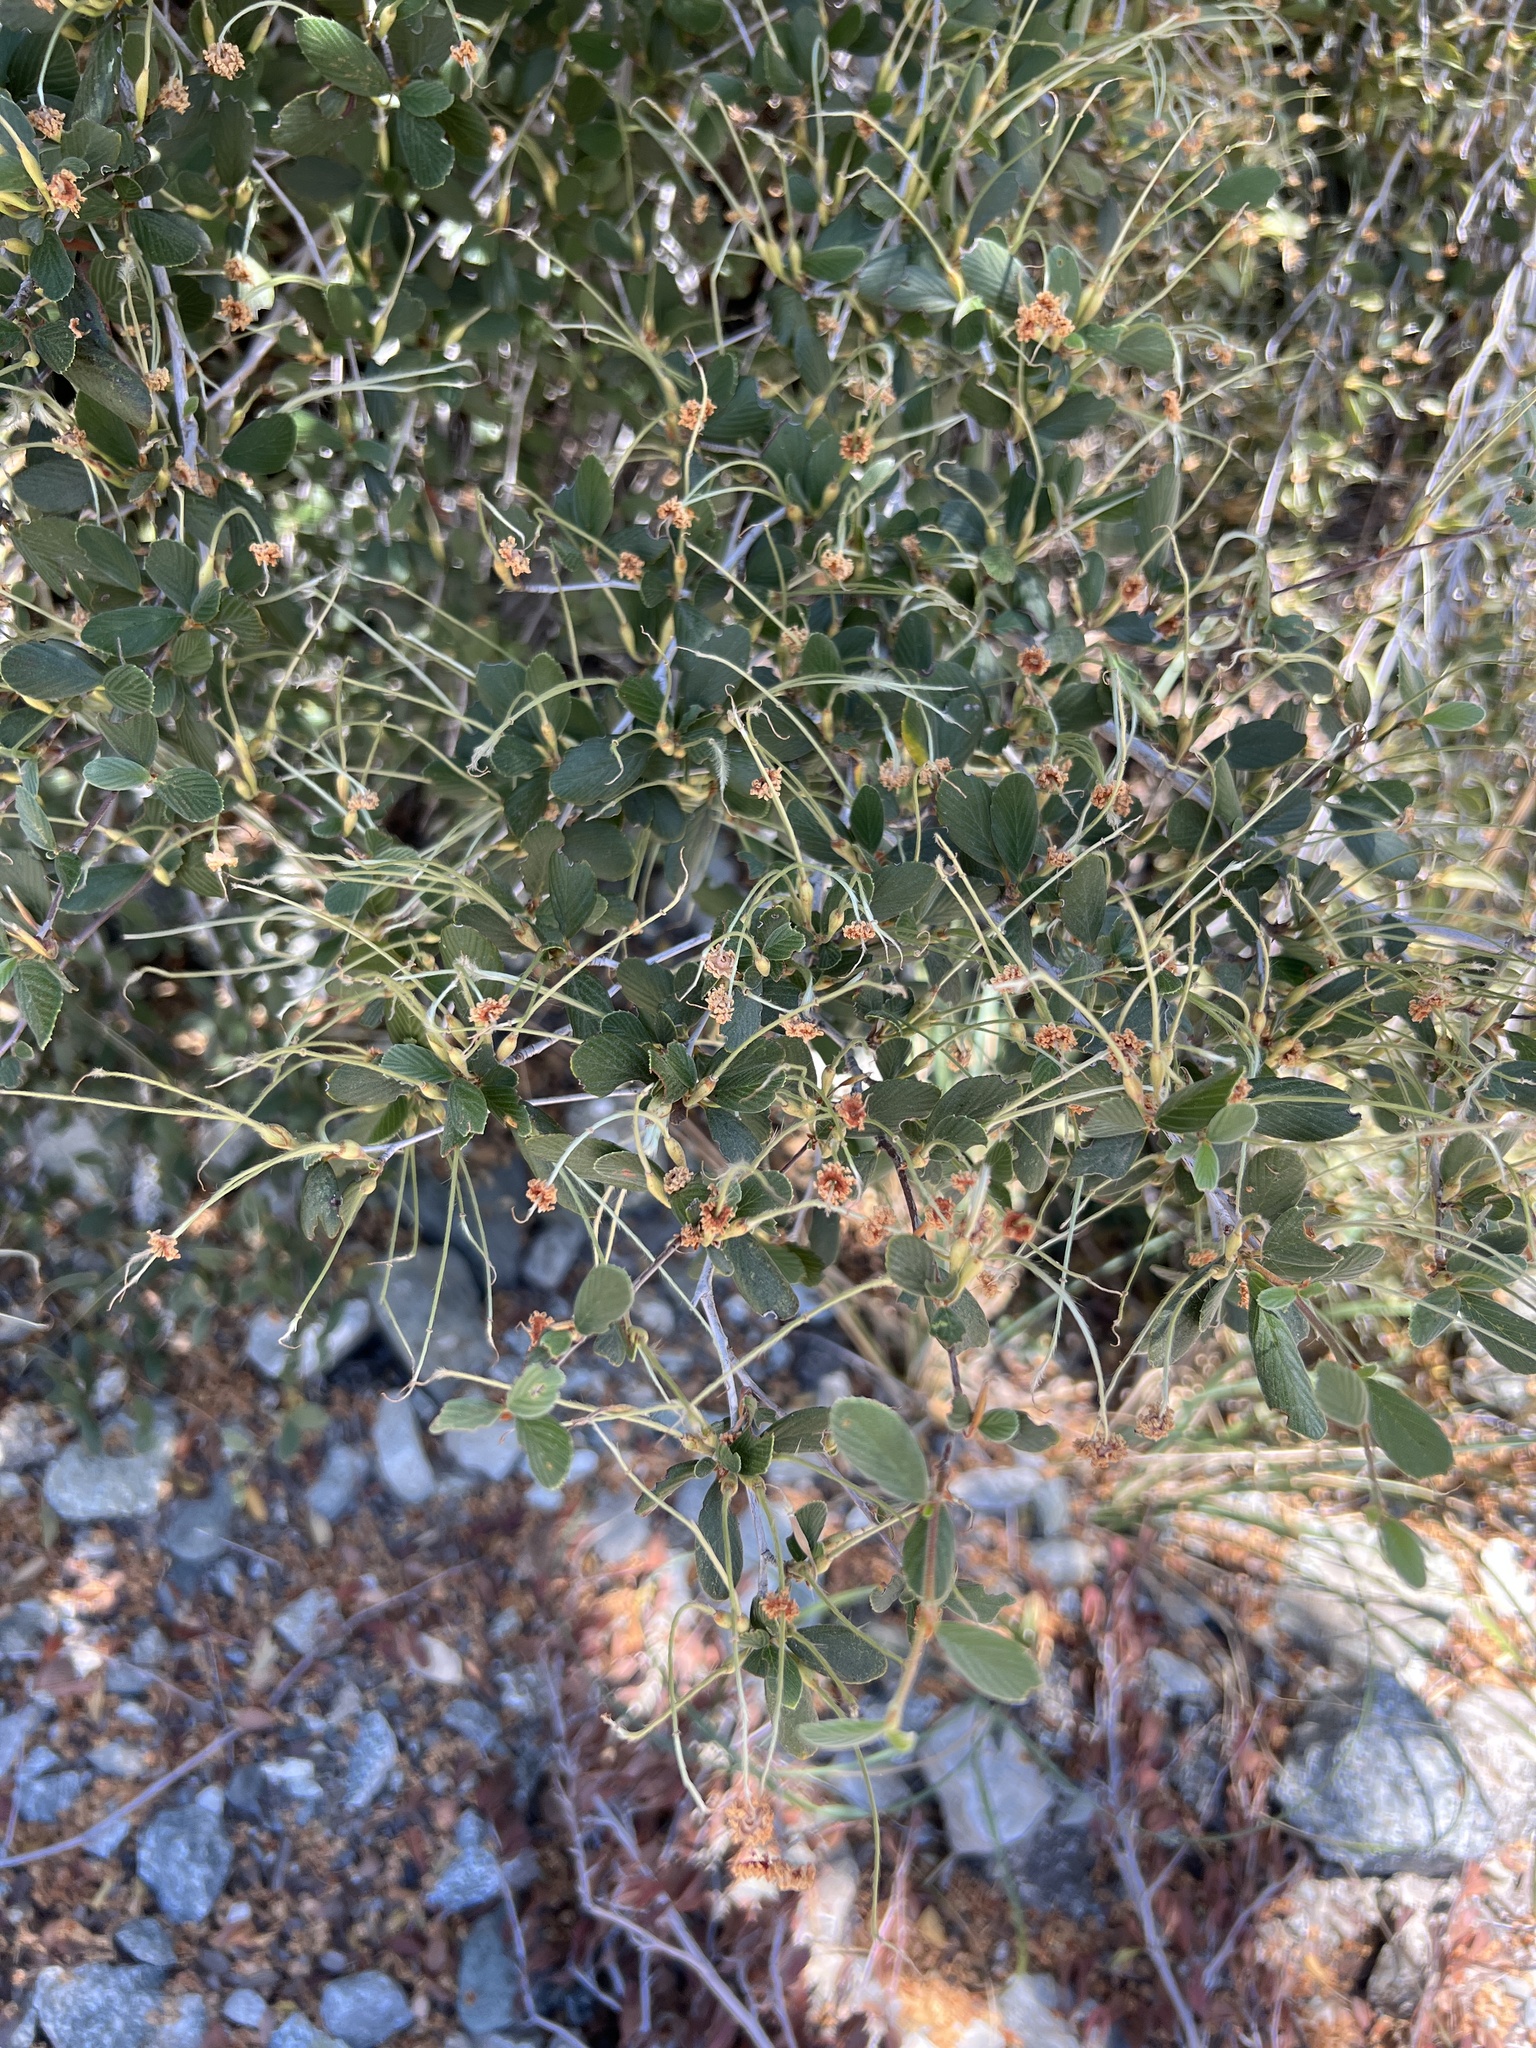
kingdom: Plantae
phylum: Tracheophyta
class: Magnoliopsida
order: Rosales
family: Rosaceae
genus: Cercocarpus
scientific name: Cercocarpus betuloides
